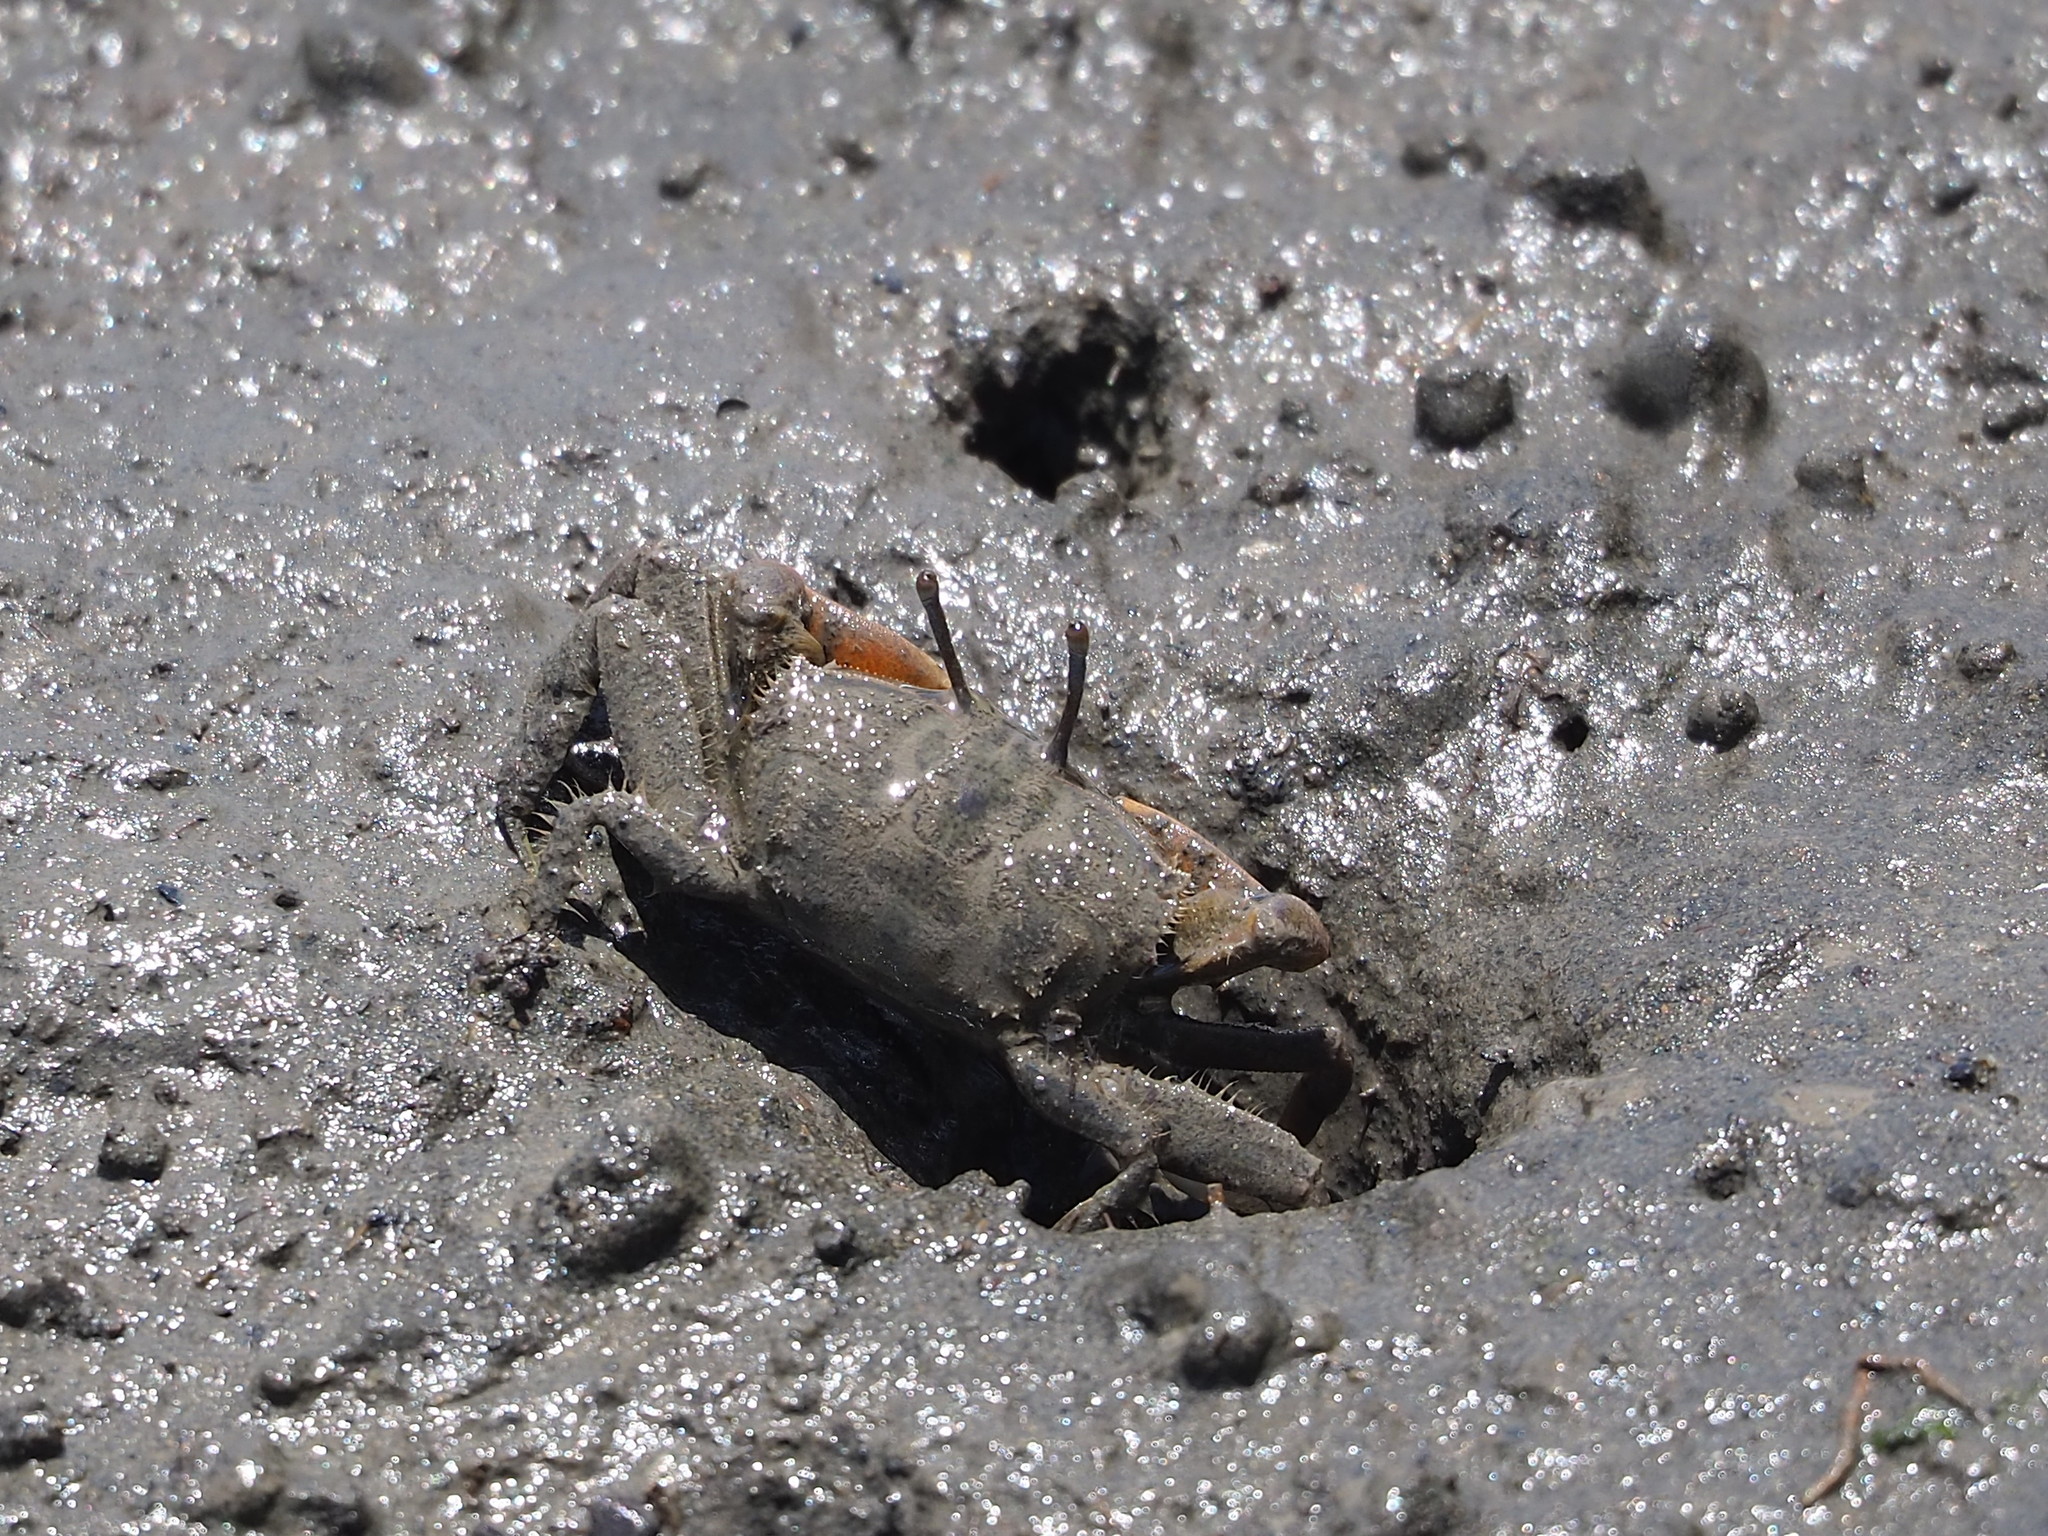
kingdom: Animalia
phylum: Arthropoda
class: Malacostraca
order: Decapoda
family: Macrophthalmidae
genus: Macrophthalmus
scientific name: Macrophthalmus banzai
